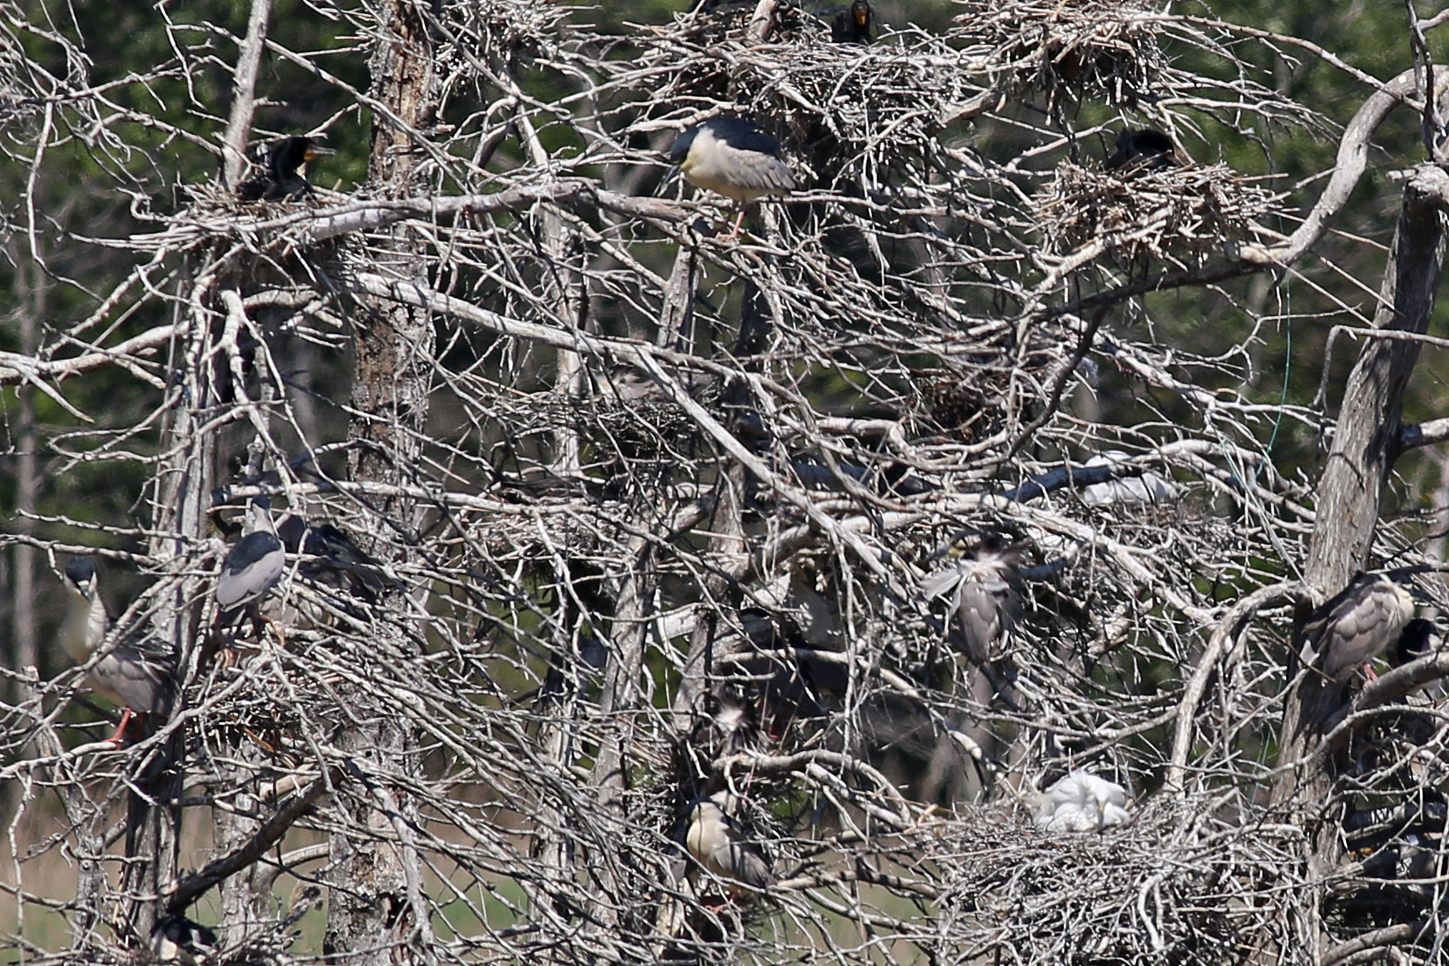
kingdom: Animalia
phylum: Chordata
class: Aves
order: Pelecaniformes
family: Ardeidae
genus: Nycticorax
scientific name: Nycticorax nycticorax
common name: Black-crowned night heron
